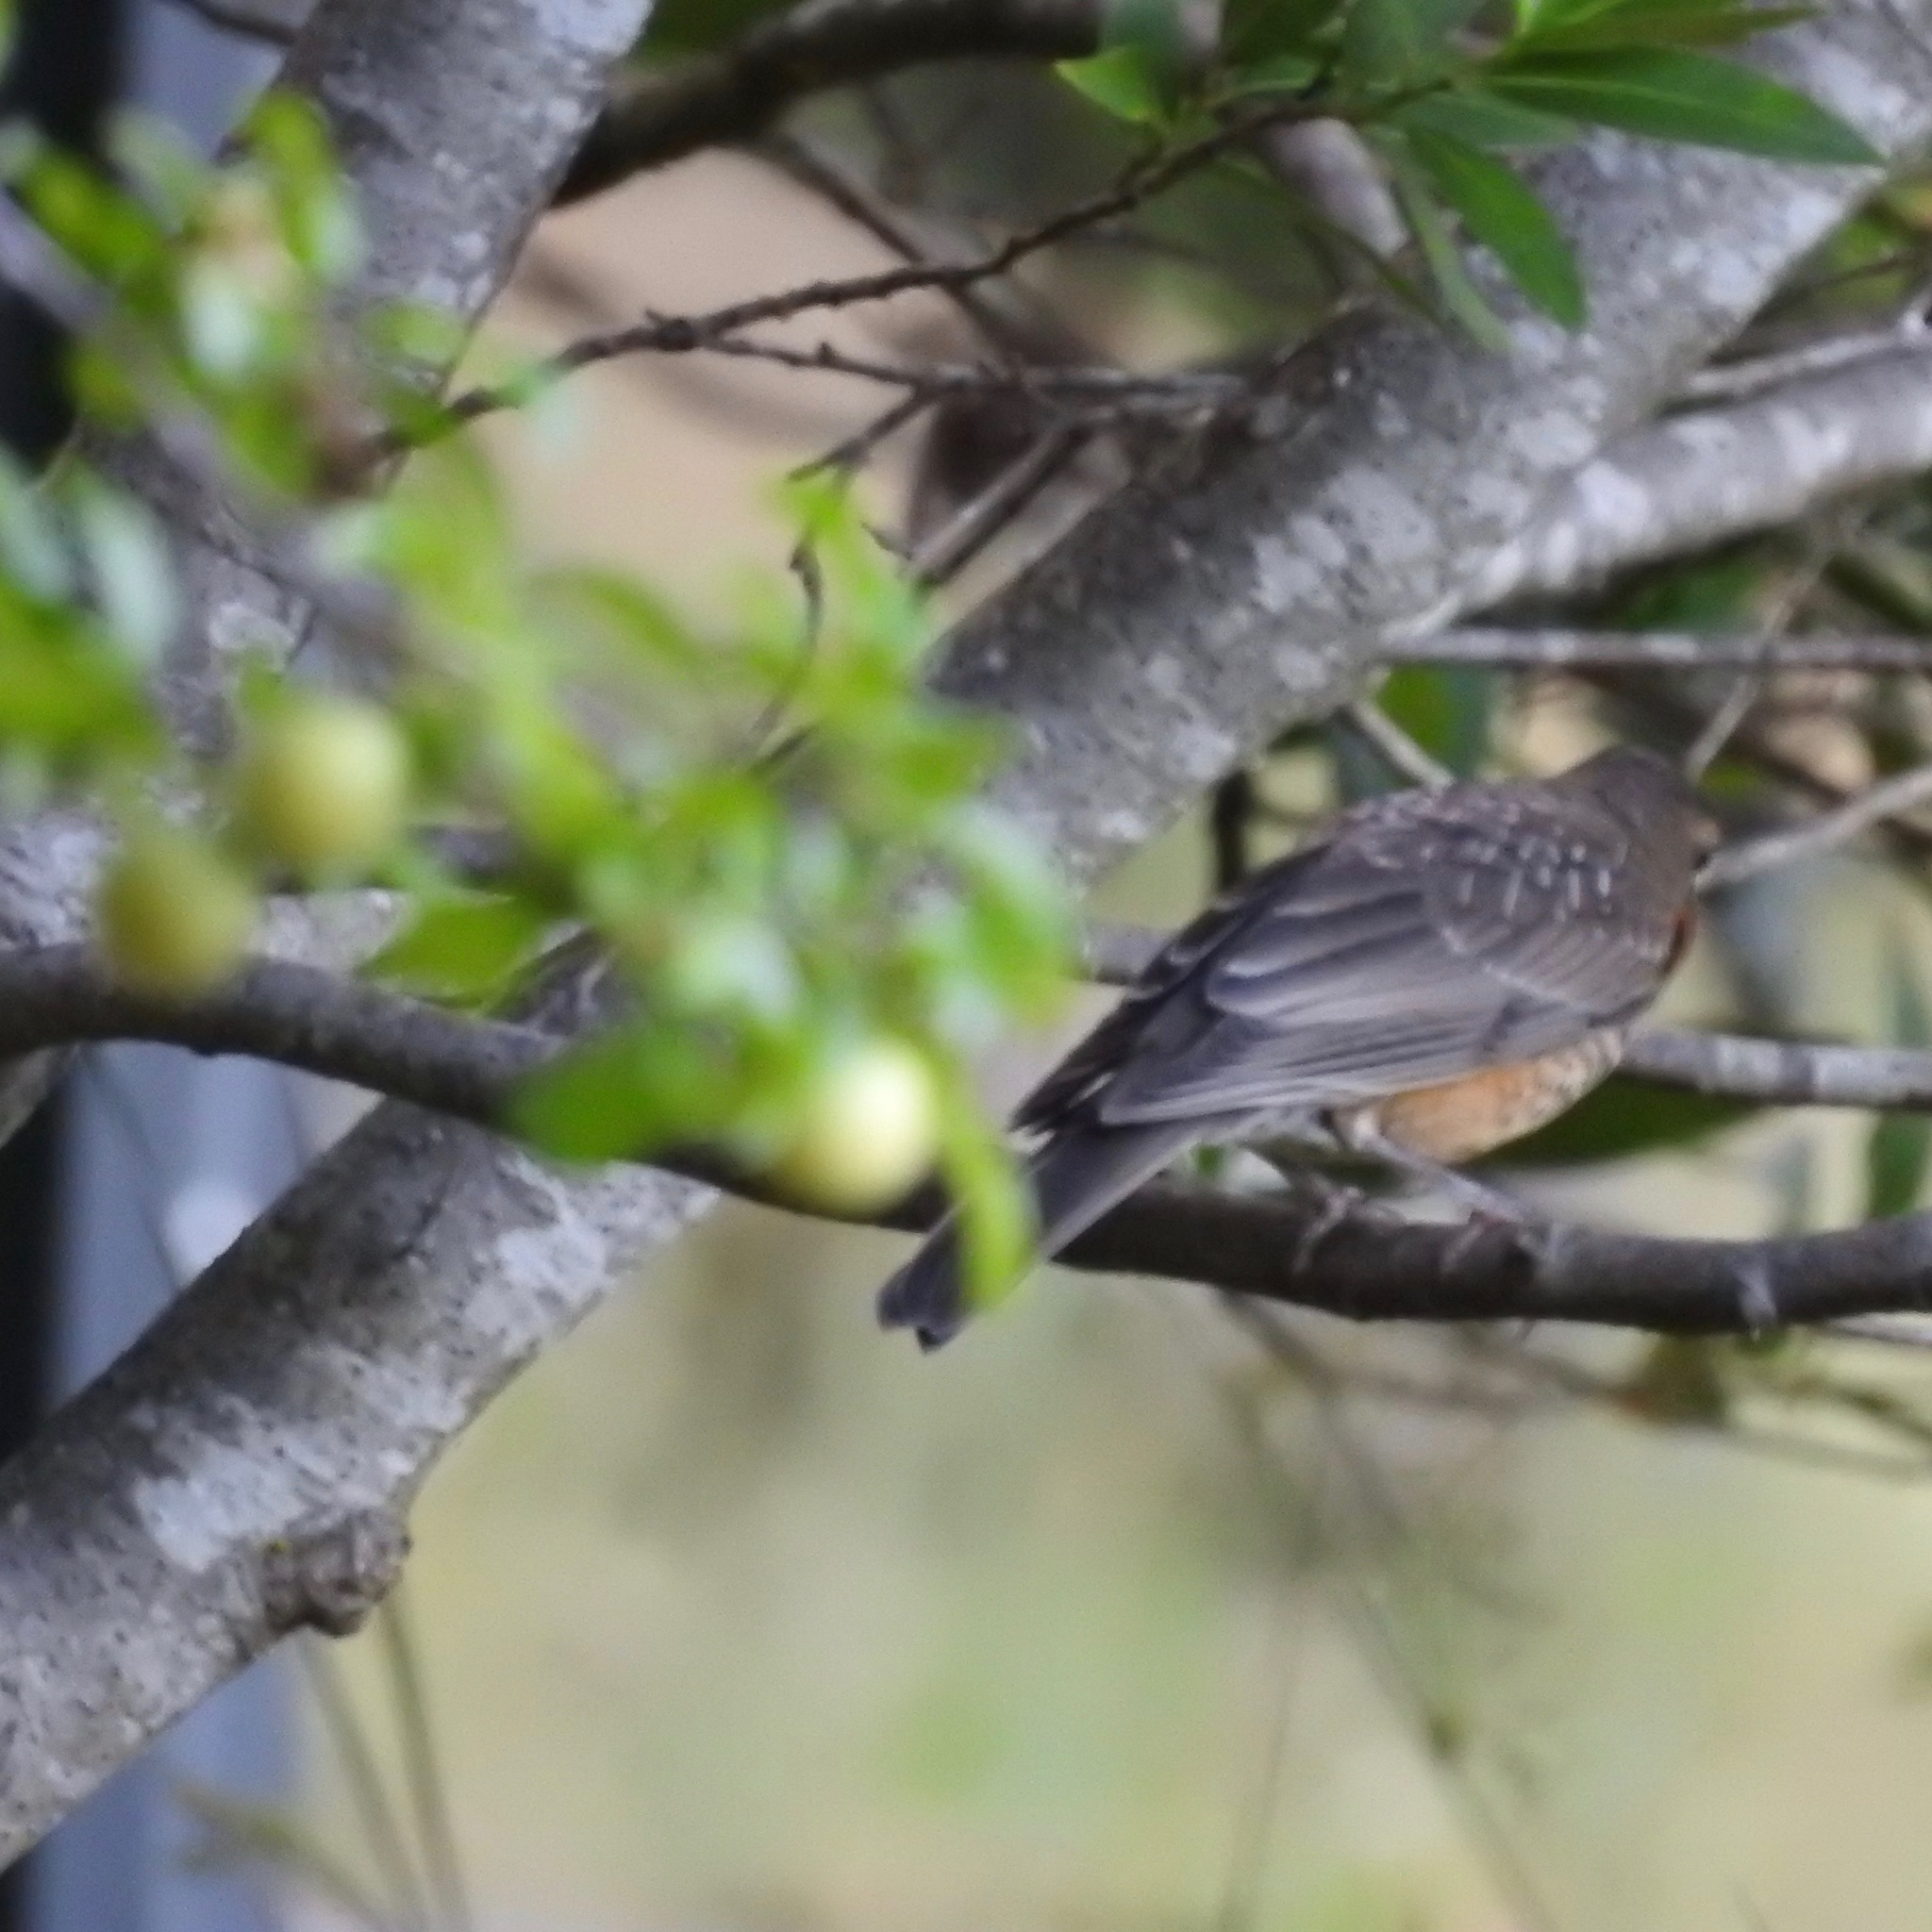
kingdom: Animalia
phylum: Chordata
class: Aves
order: Passeriformes
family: Turdidae
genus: Turdus
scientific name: Turdus migratorius
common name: American robin
